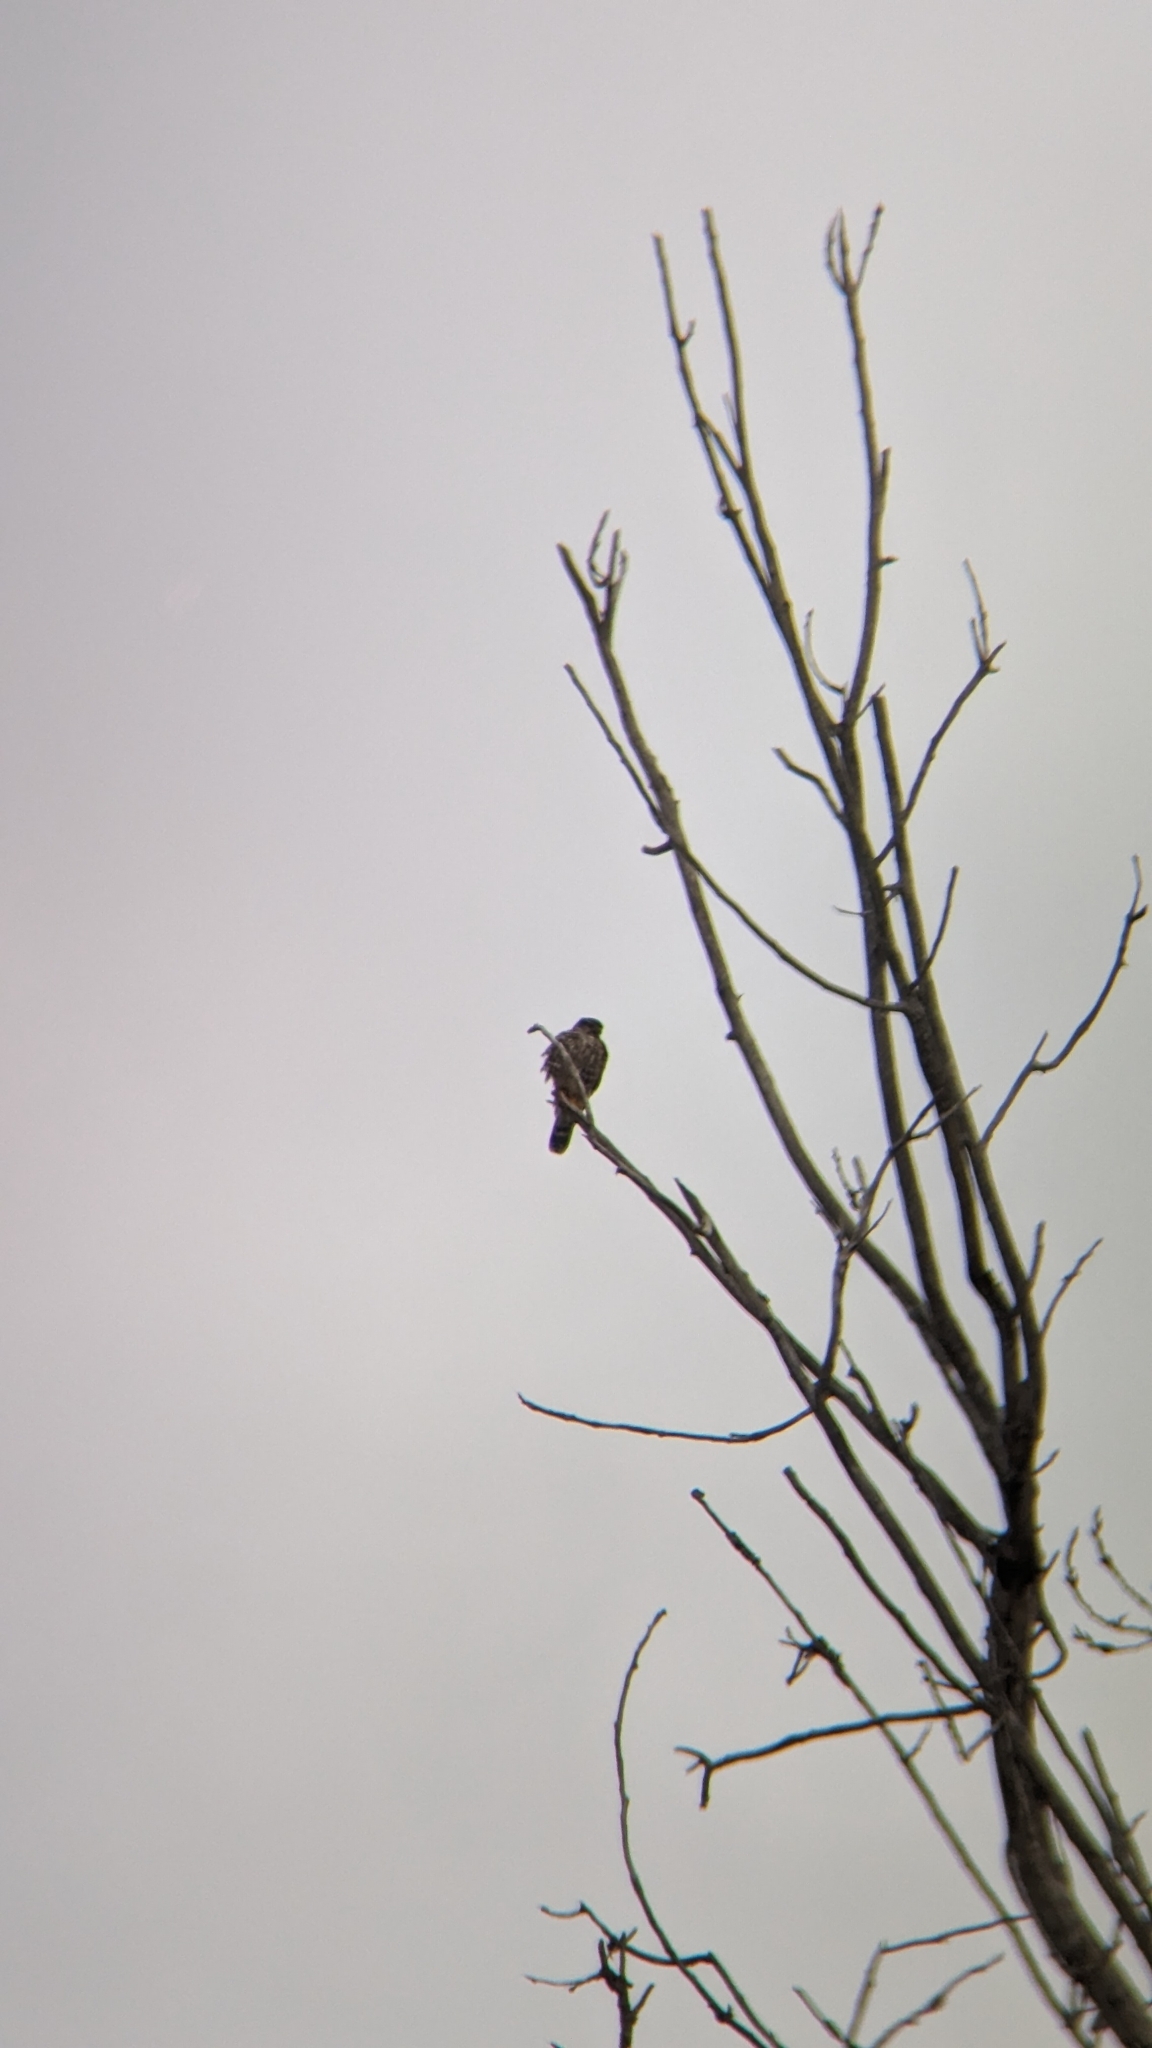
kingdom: Animalia
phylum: Chordata
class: Aves
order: Falconiformes
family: Falconidae
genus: Falco
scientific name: Falco columbarius
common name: Merlin
